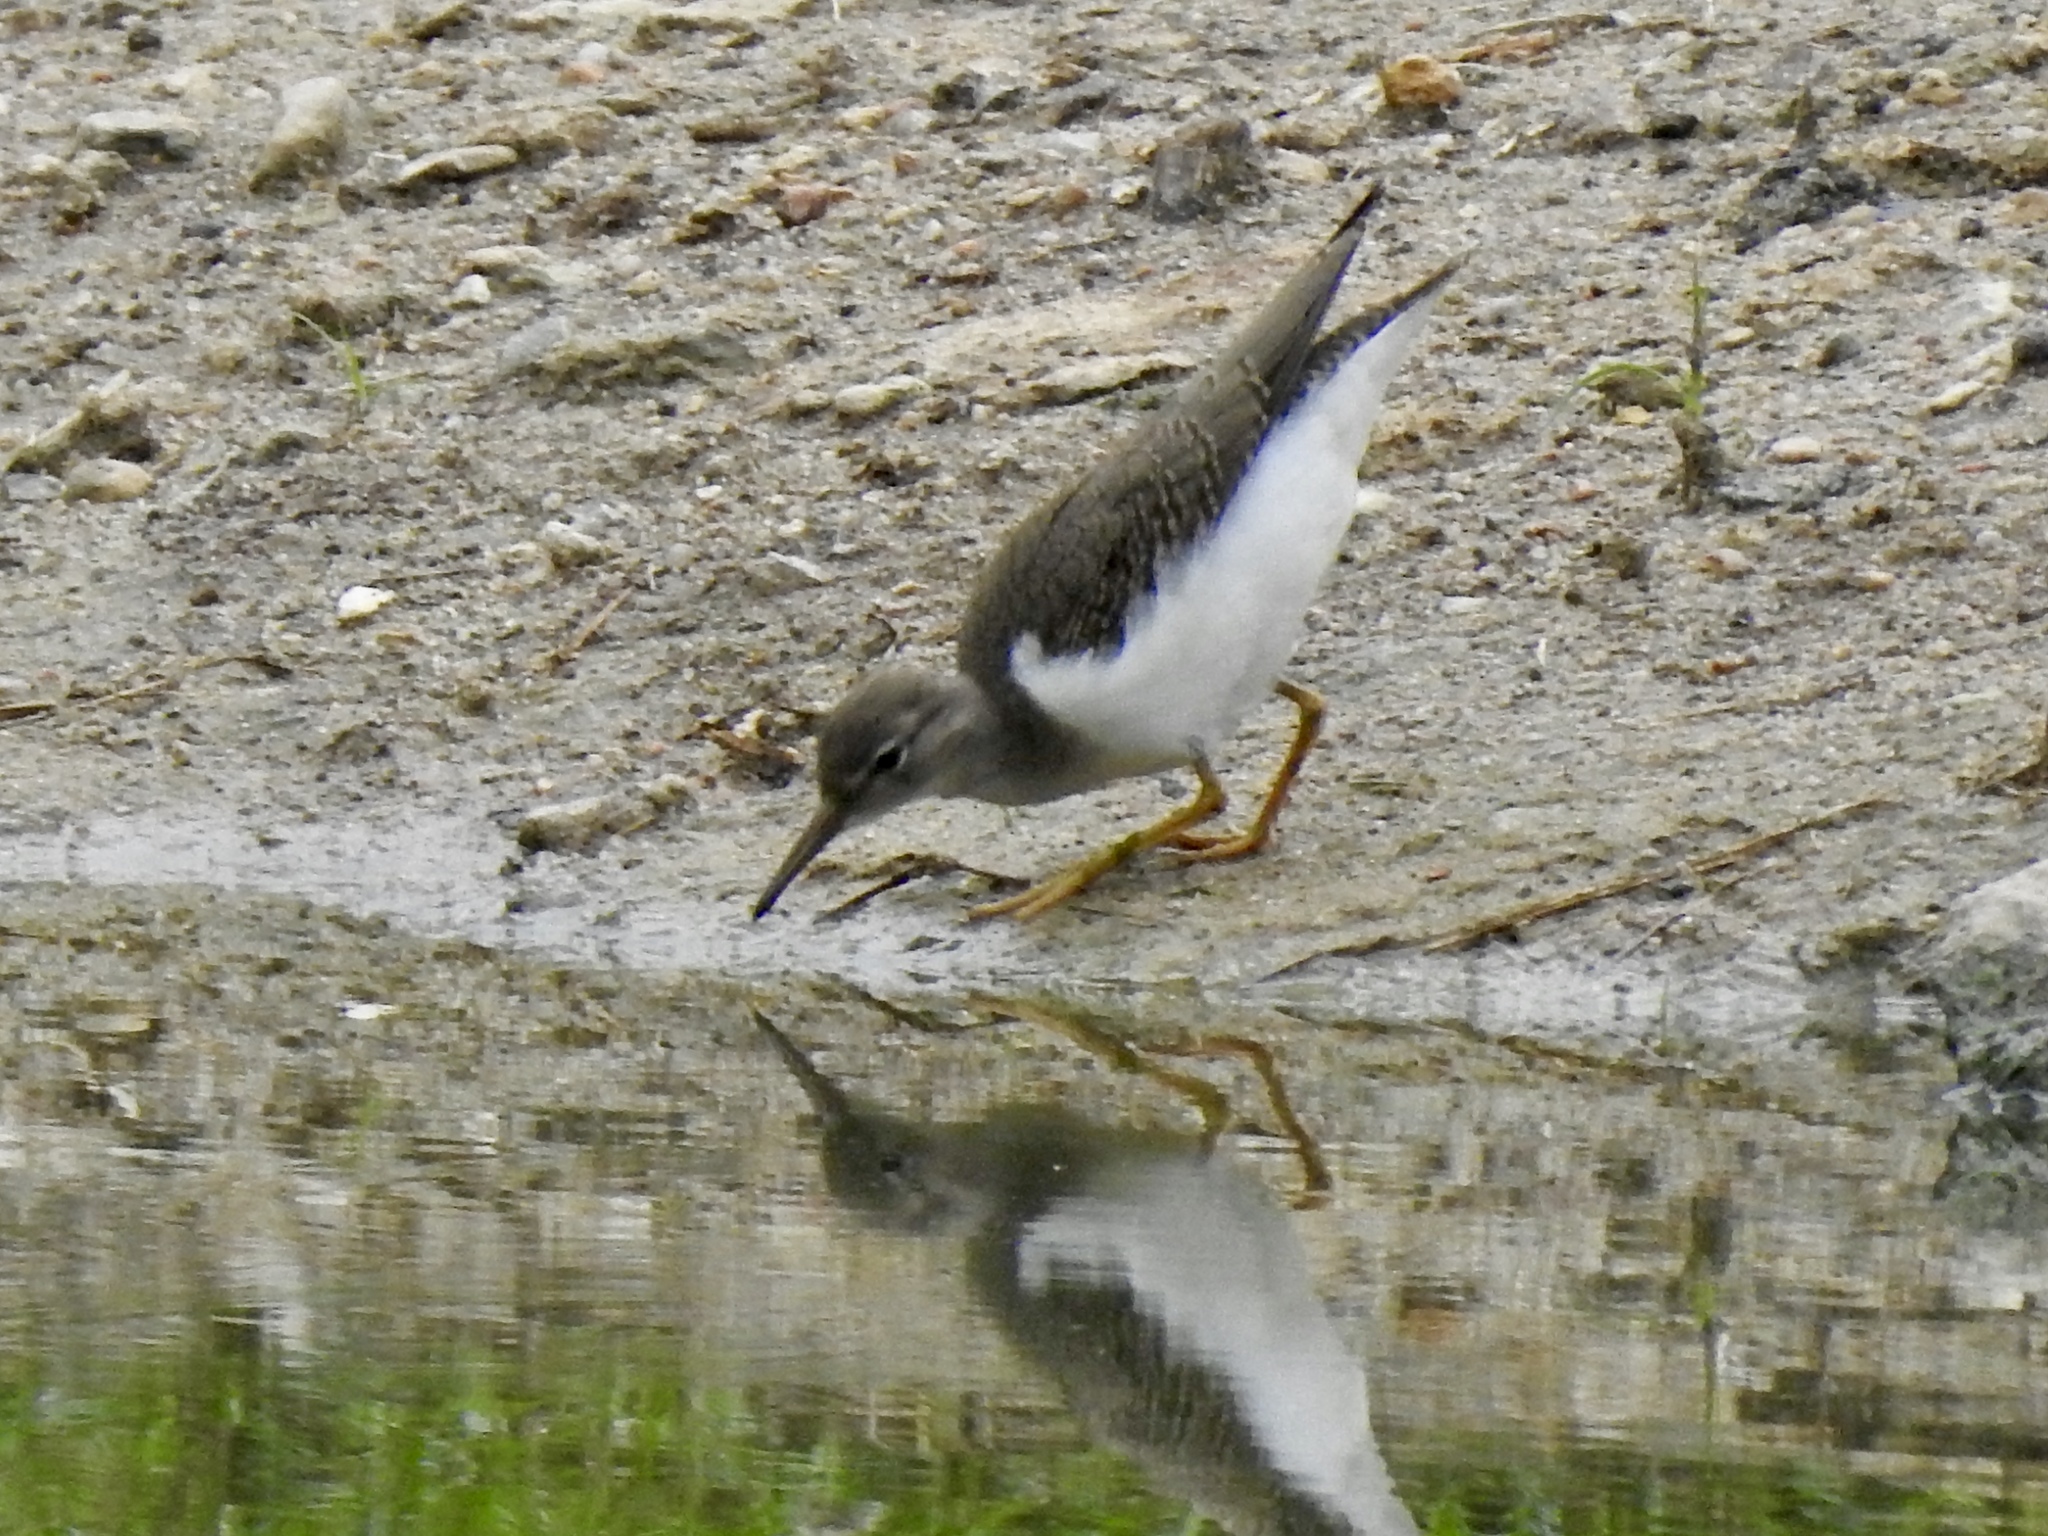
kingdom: Animalia
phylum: Chordata
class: Aves
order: Charadriiformes
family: Scolopacidae
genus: Actitis
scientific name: Actitis macularius
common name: Spotted sandpiper
